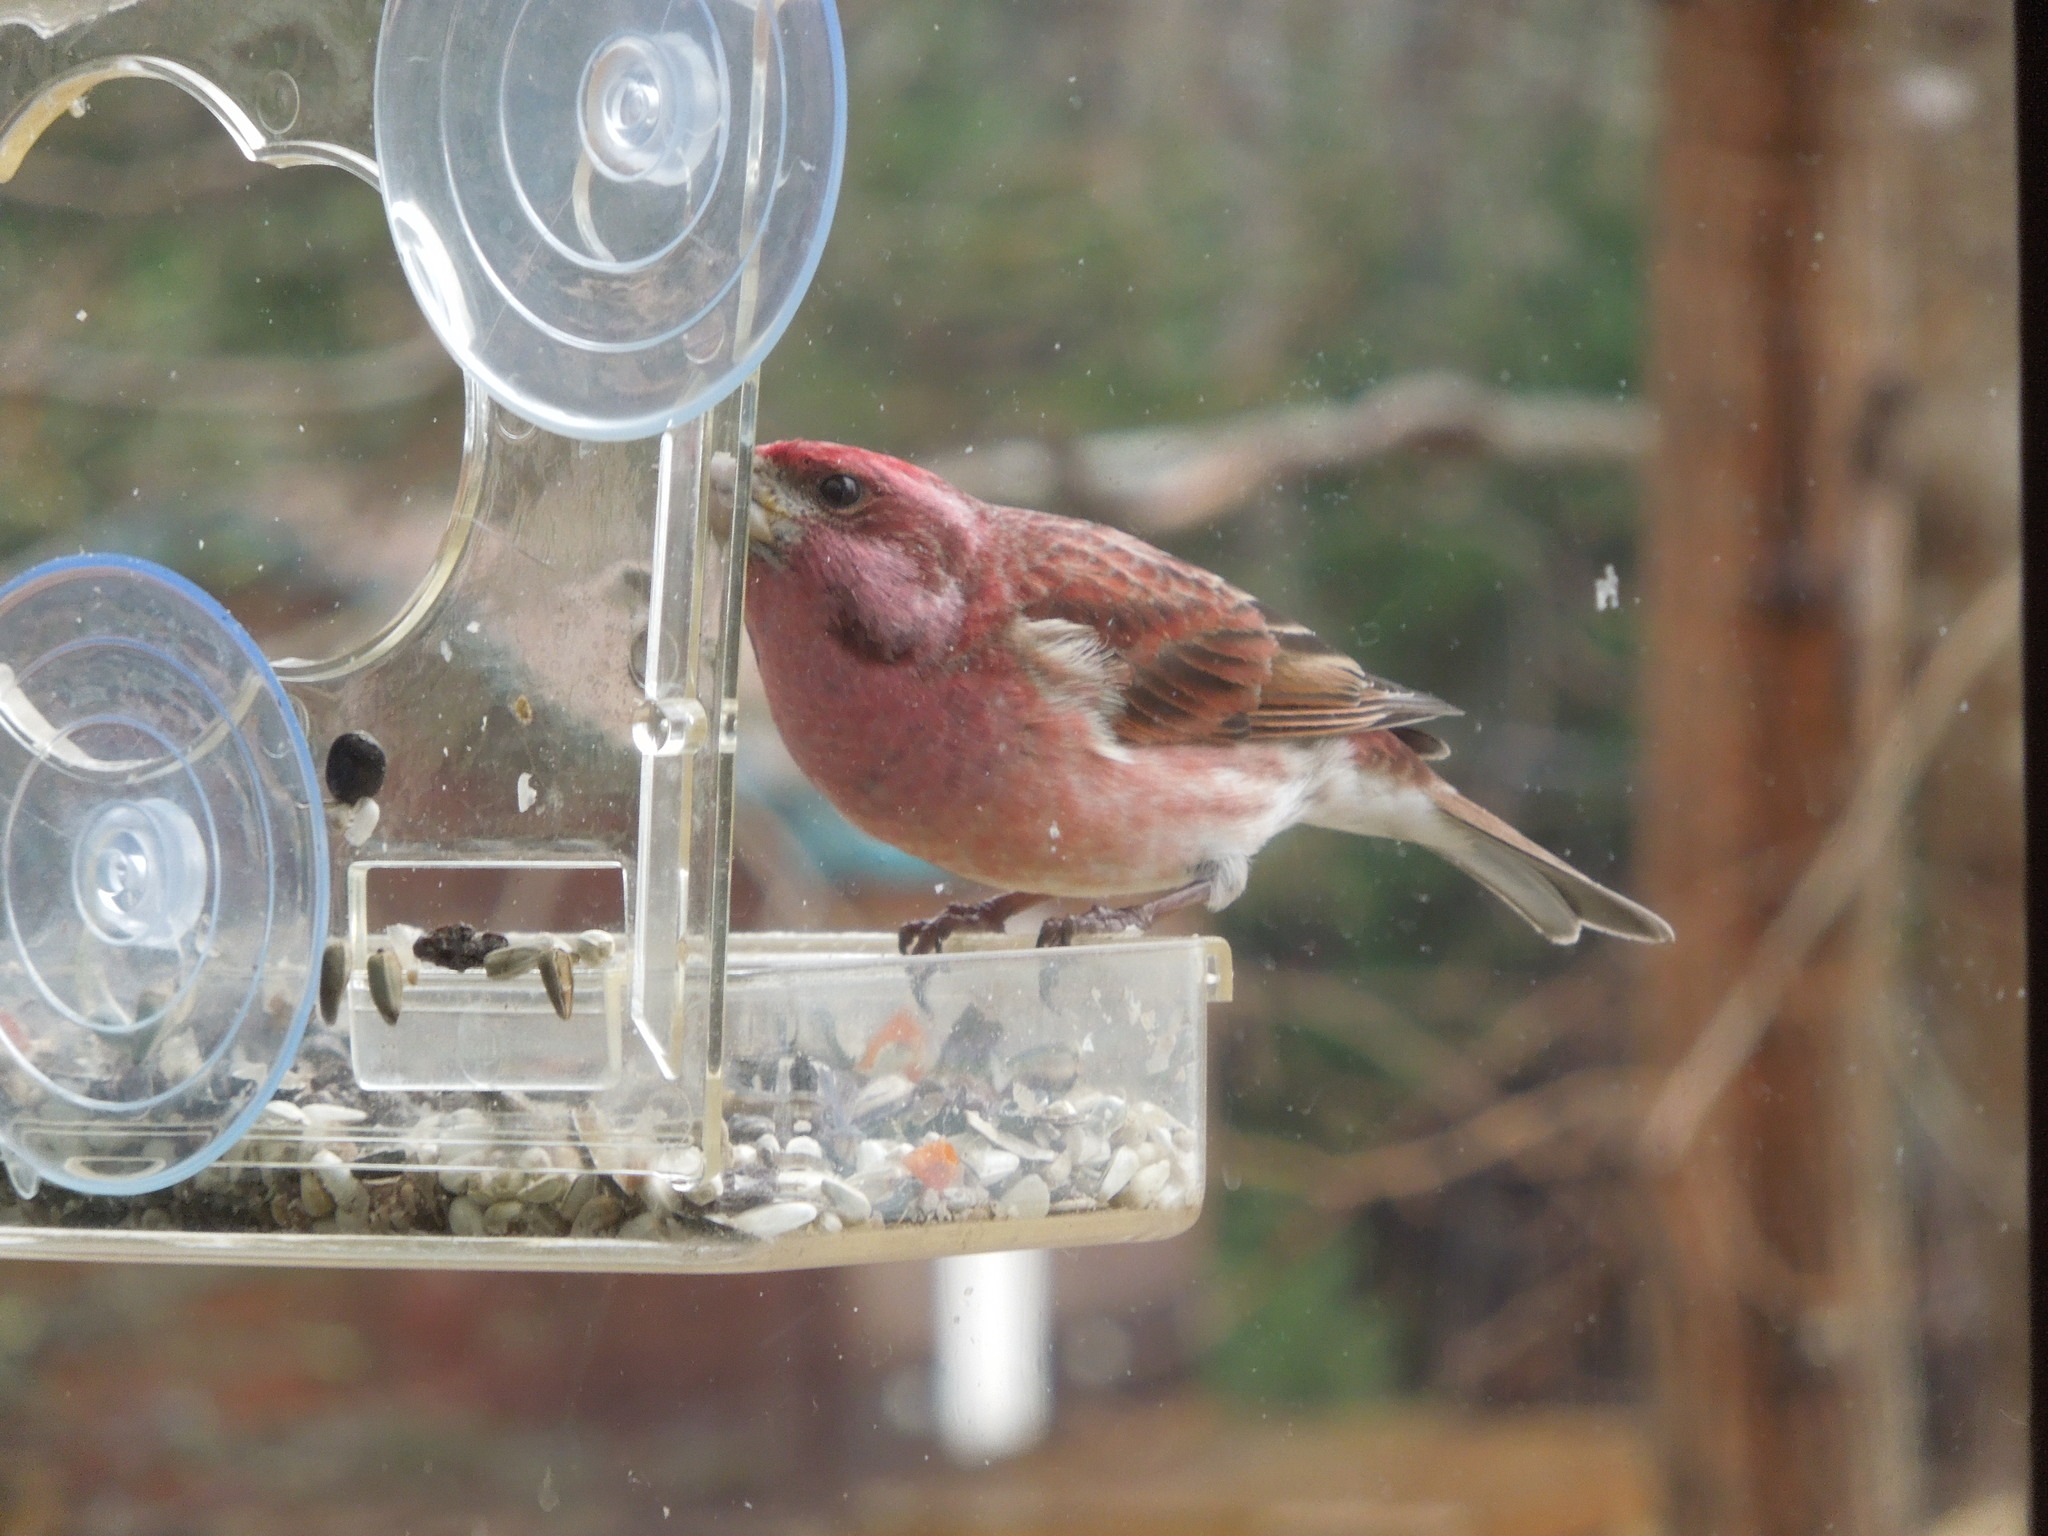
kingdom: Animalia
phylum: Chordata
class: Aves
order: Passeriformes
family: Fringillidae
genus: Haemorhous
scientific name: Haemorhous purpureus
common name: Purple finch
